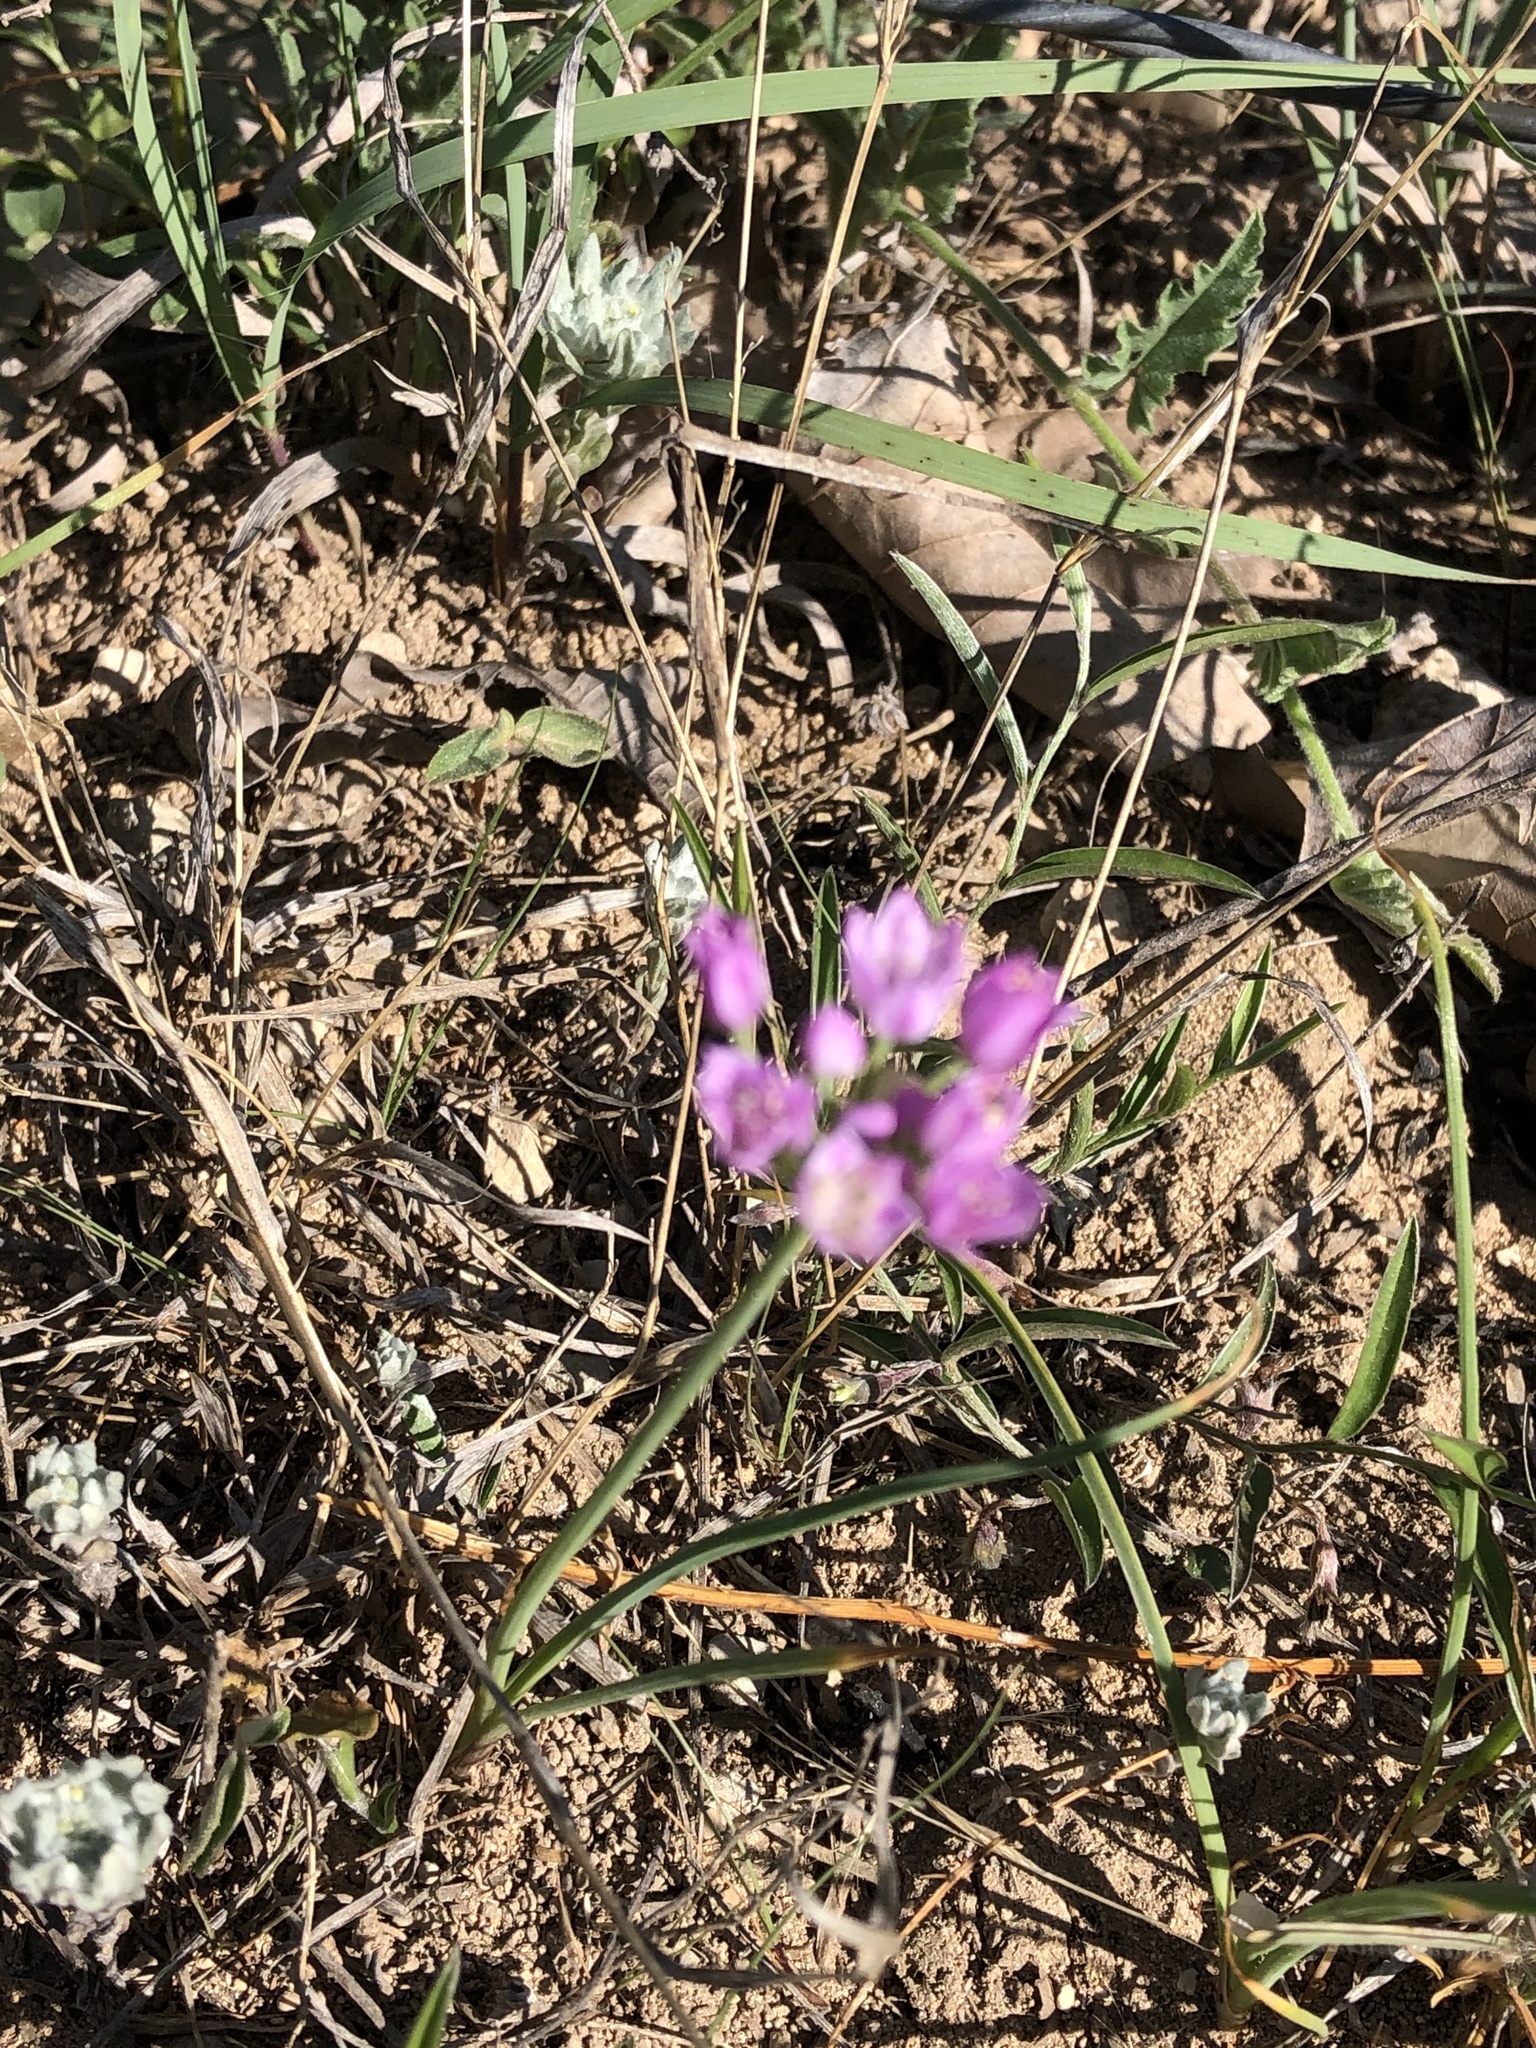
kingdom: Plantae
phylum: Tracheophyta
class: Liliopsida
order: Asparagales
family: Amaryllidaceae
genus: Allium
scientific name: Allium drummondii
